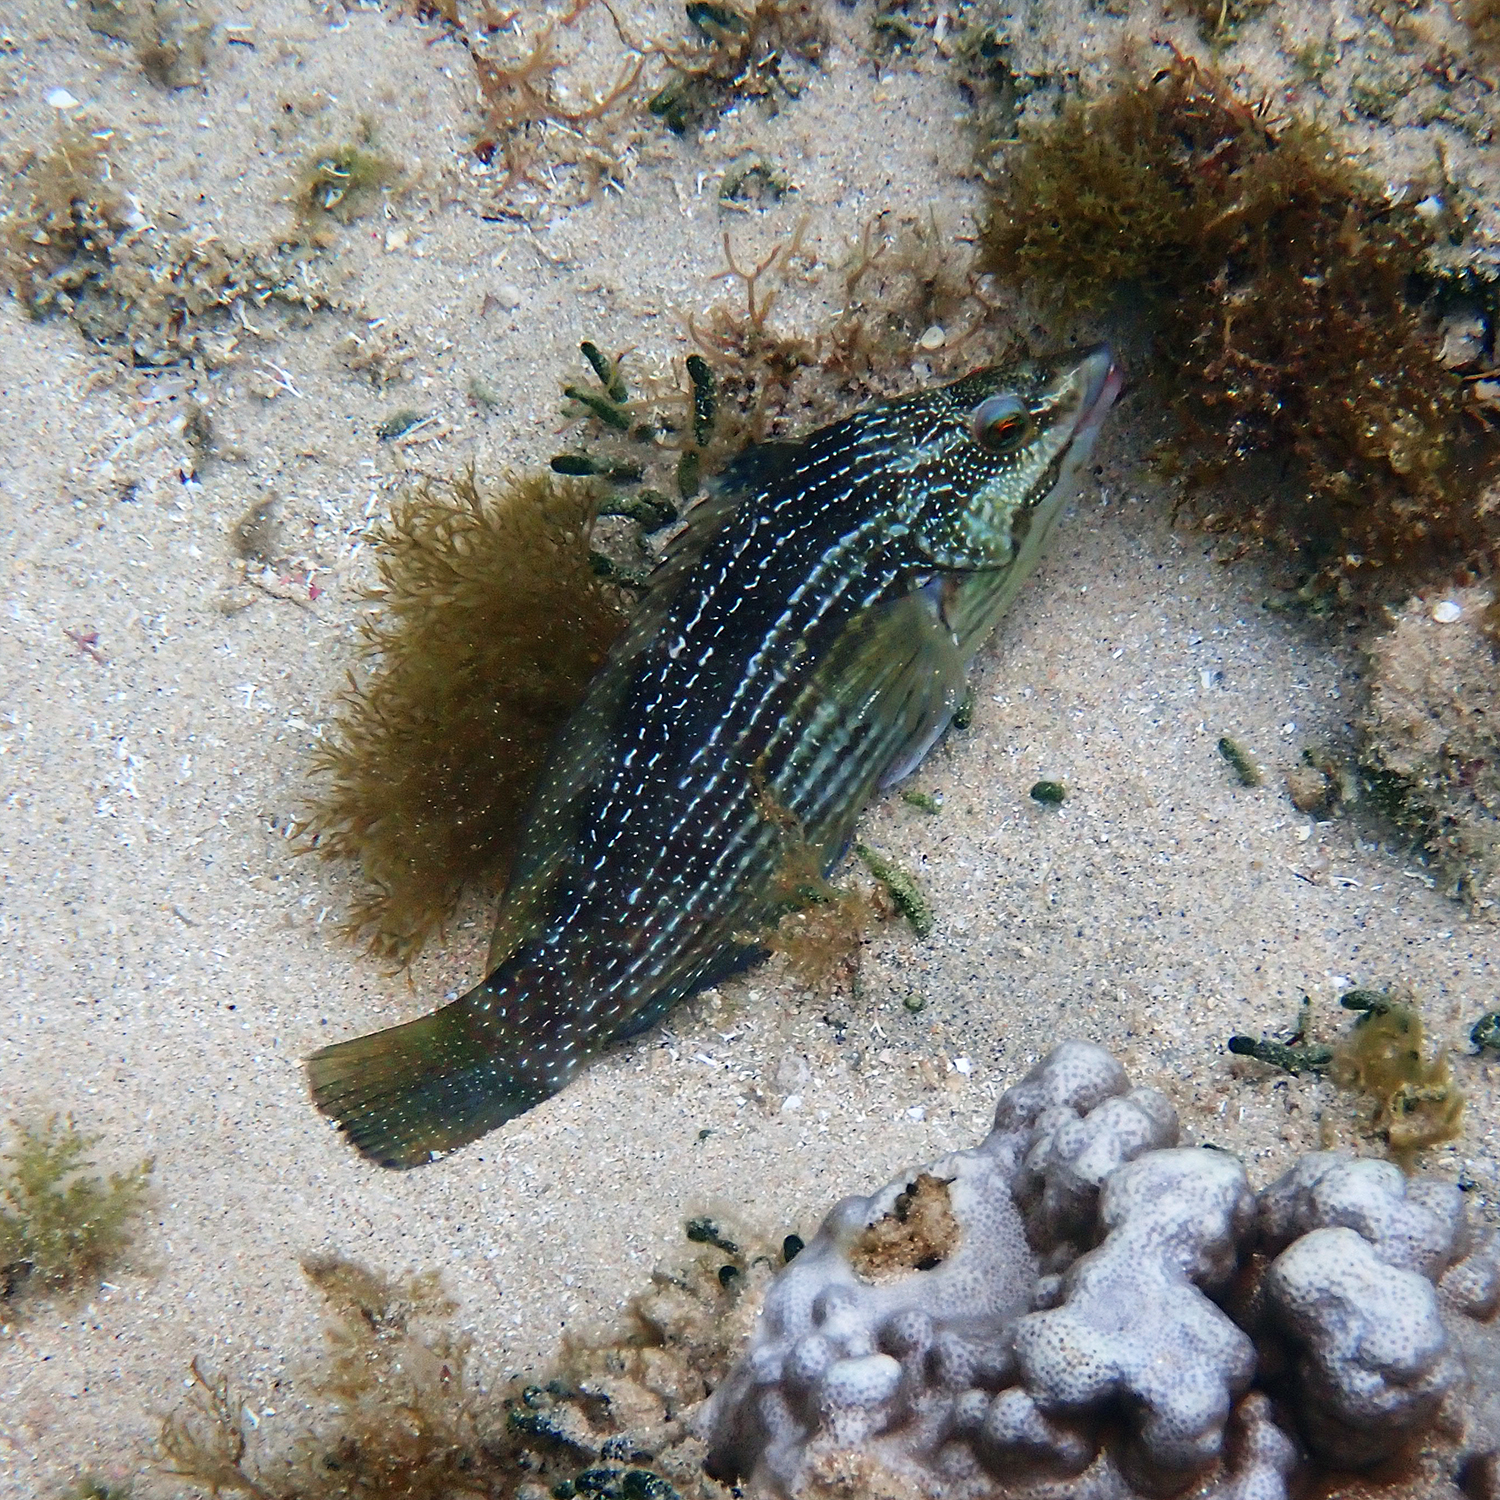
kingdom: Animalia
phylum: Chordata
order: Perciformes
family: Labridae
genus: Notolabrus
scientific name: Notolabrus inscriptus
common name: Green wrasse
